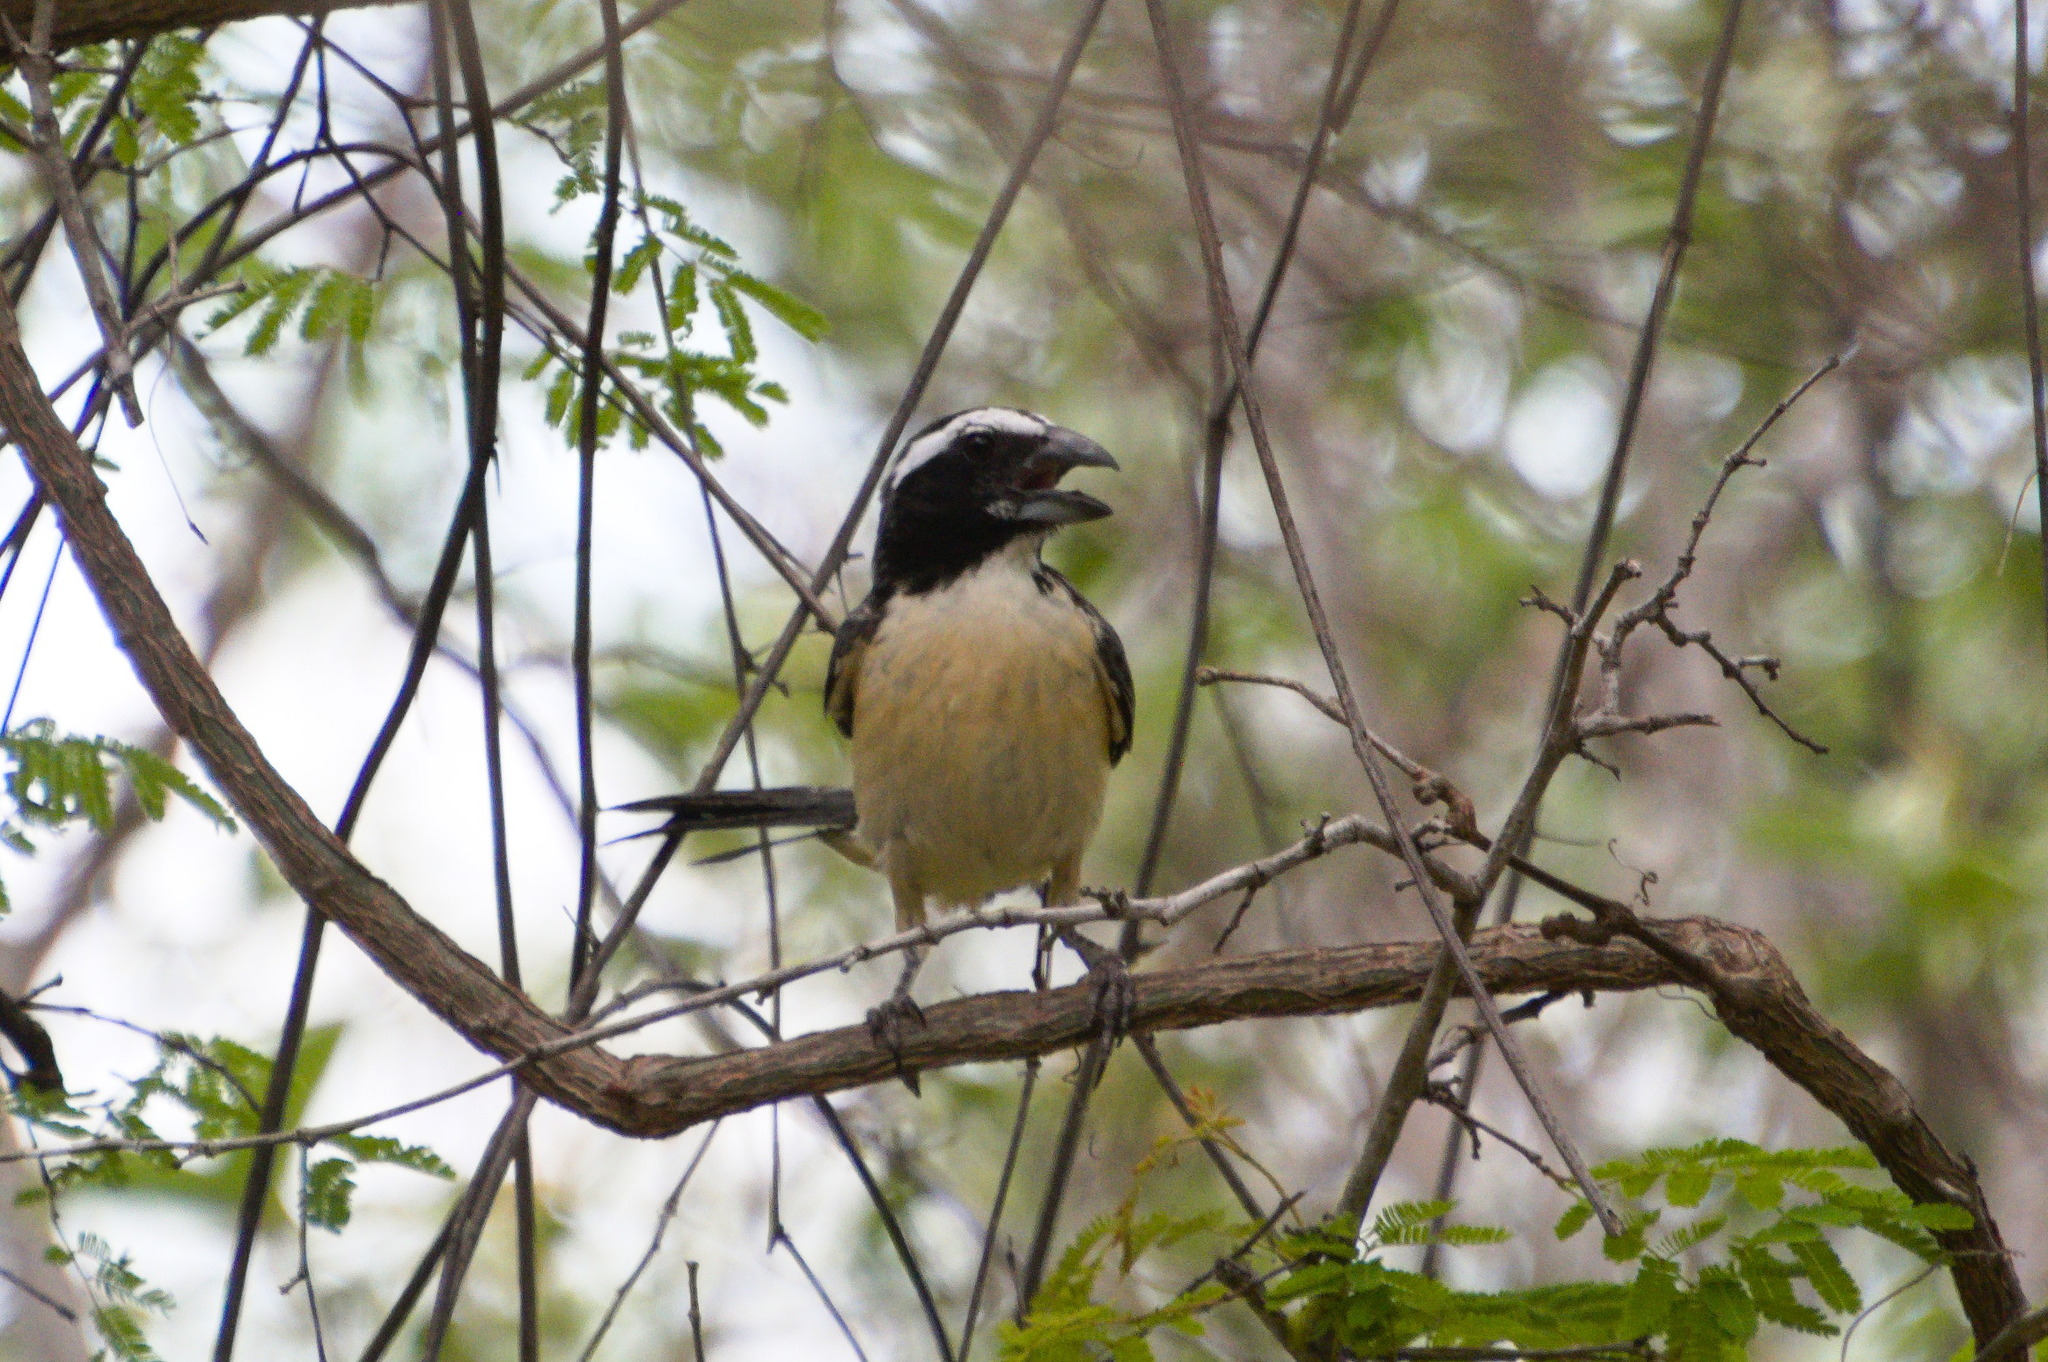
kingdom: Animalia
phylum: Chordata
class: Aves
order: Passeriformes
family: Thraupidae
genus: Saltator
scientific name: Saltator orenocensis
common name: Orinoco saltator
